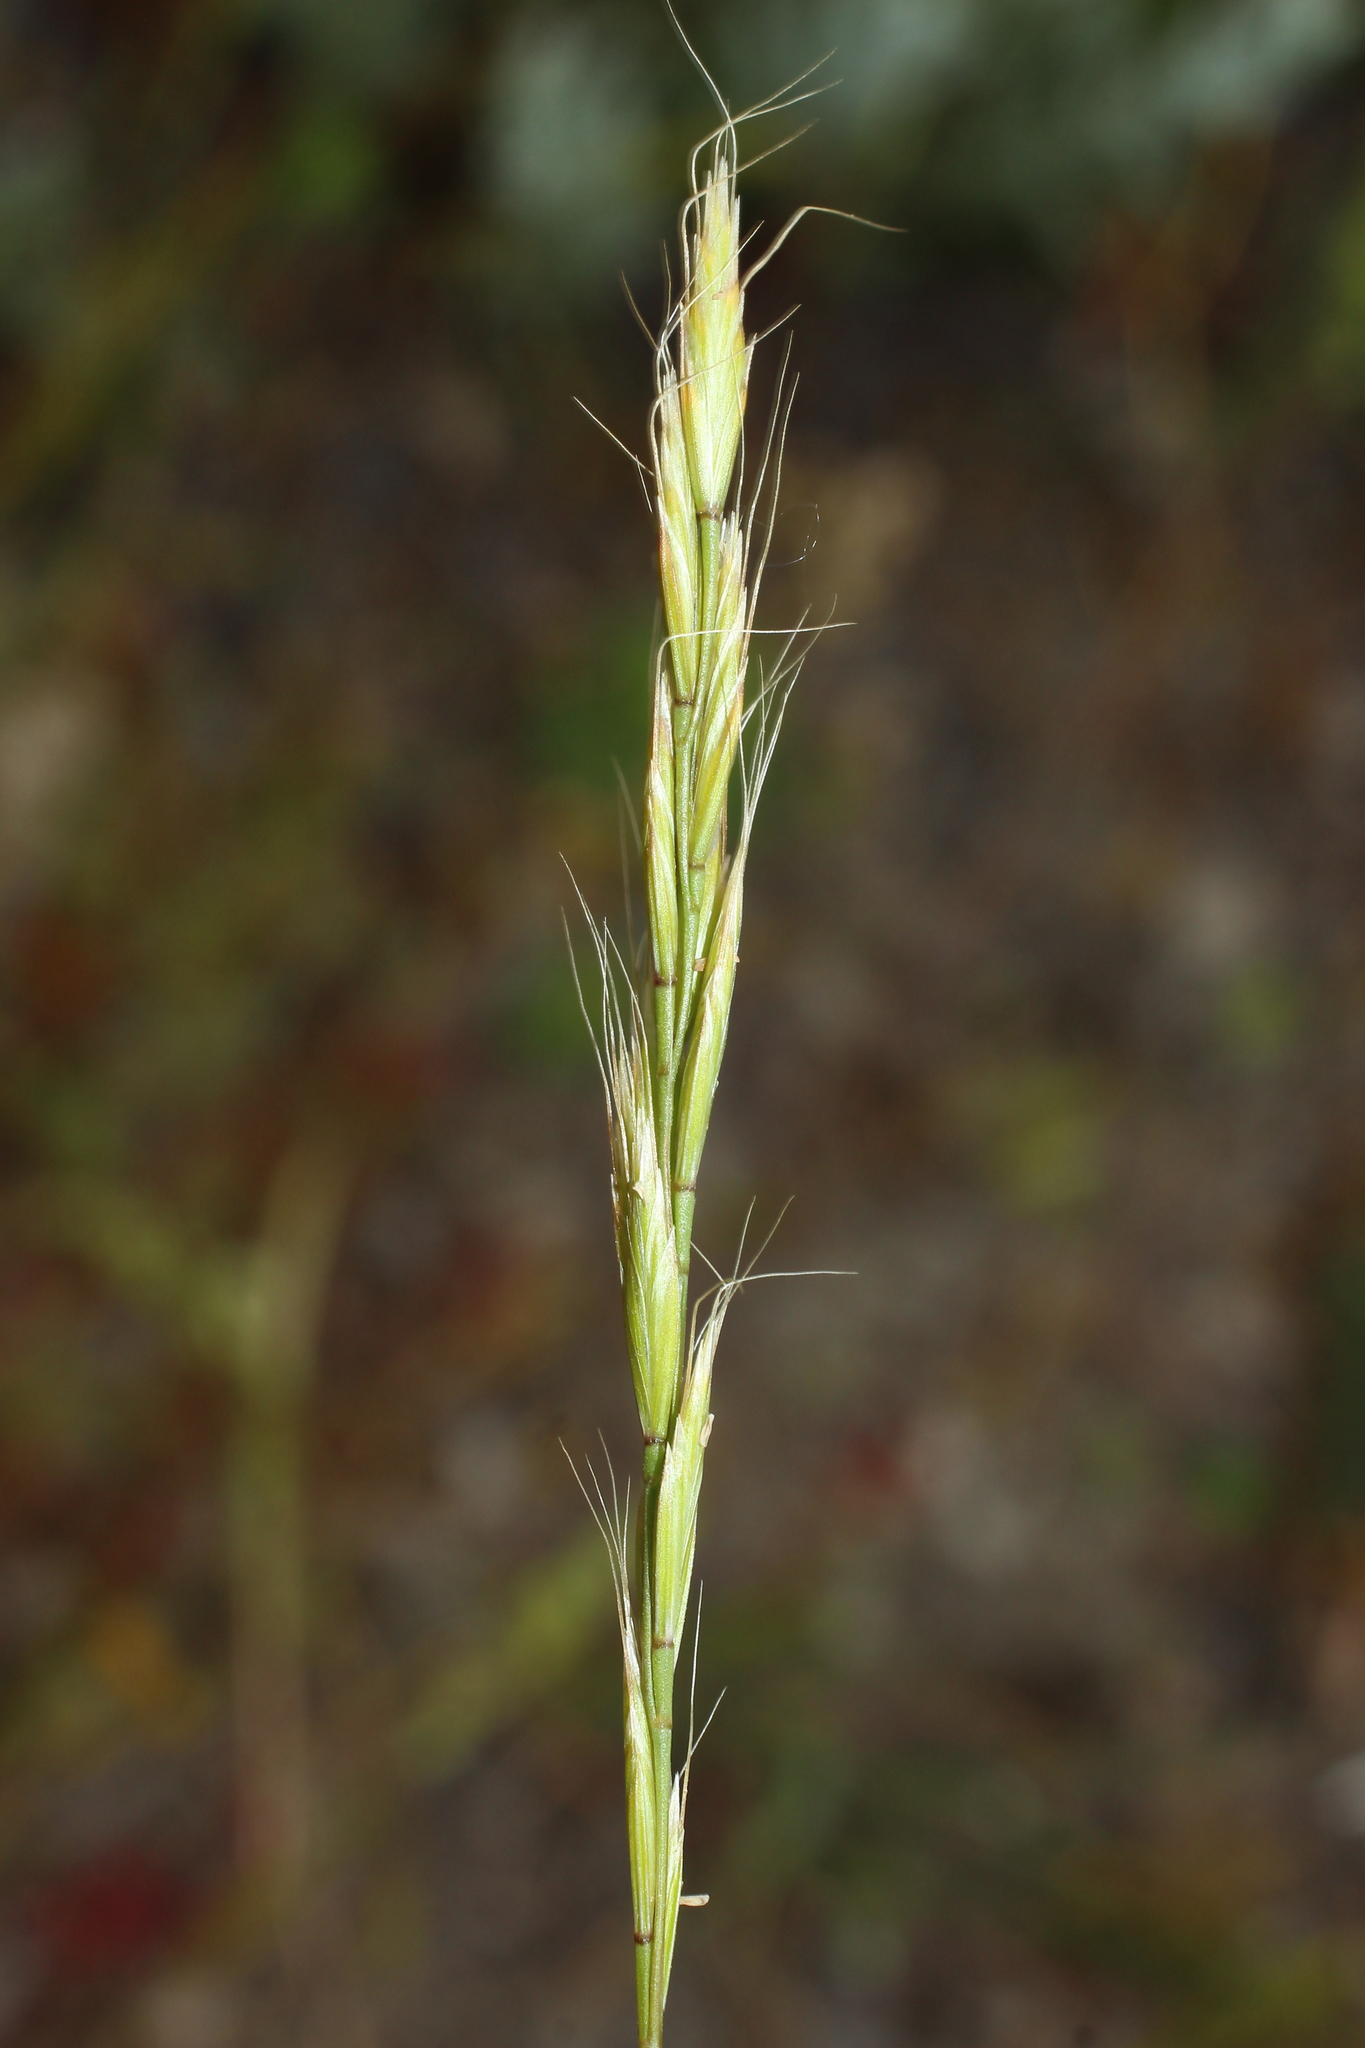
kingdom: Plantae
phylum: Tracheophyta
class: Liliopsida
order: Poales
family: Poaceae
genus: Ventenata
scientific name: Ventenata macra
